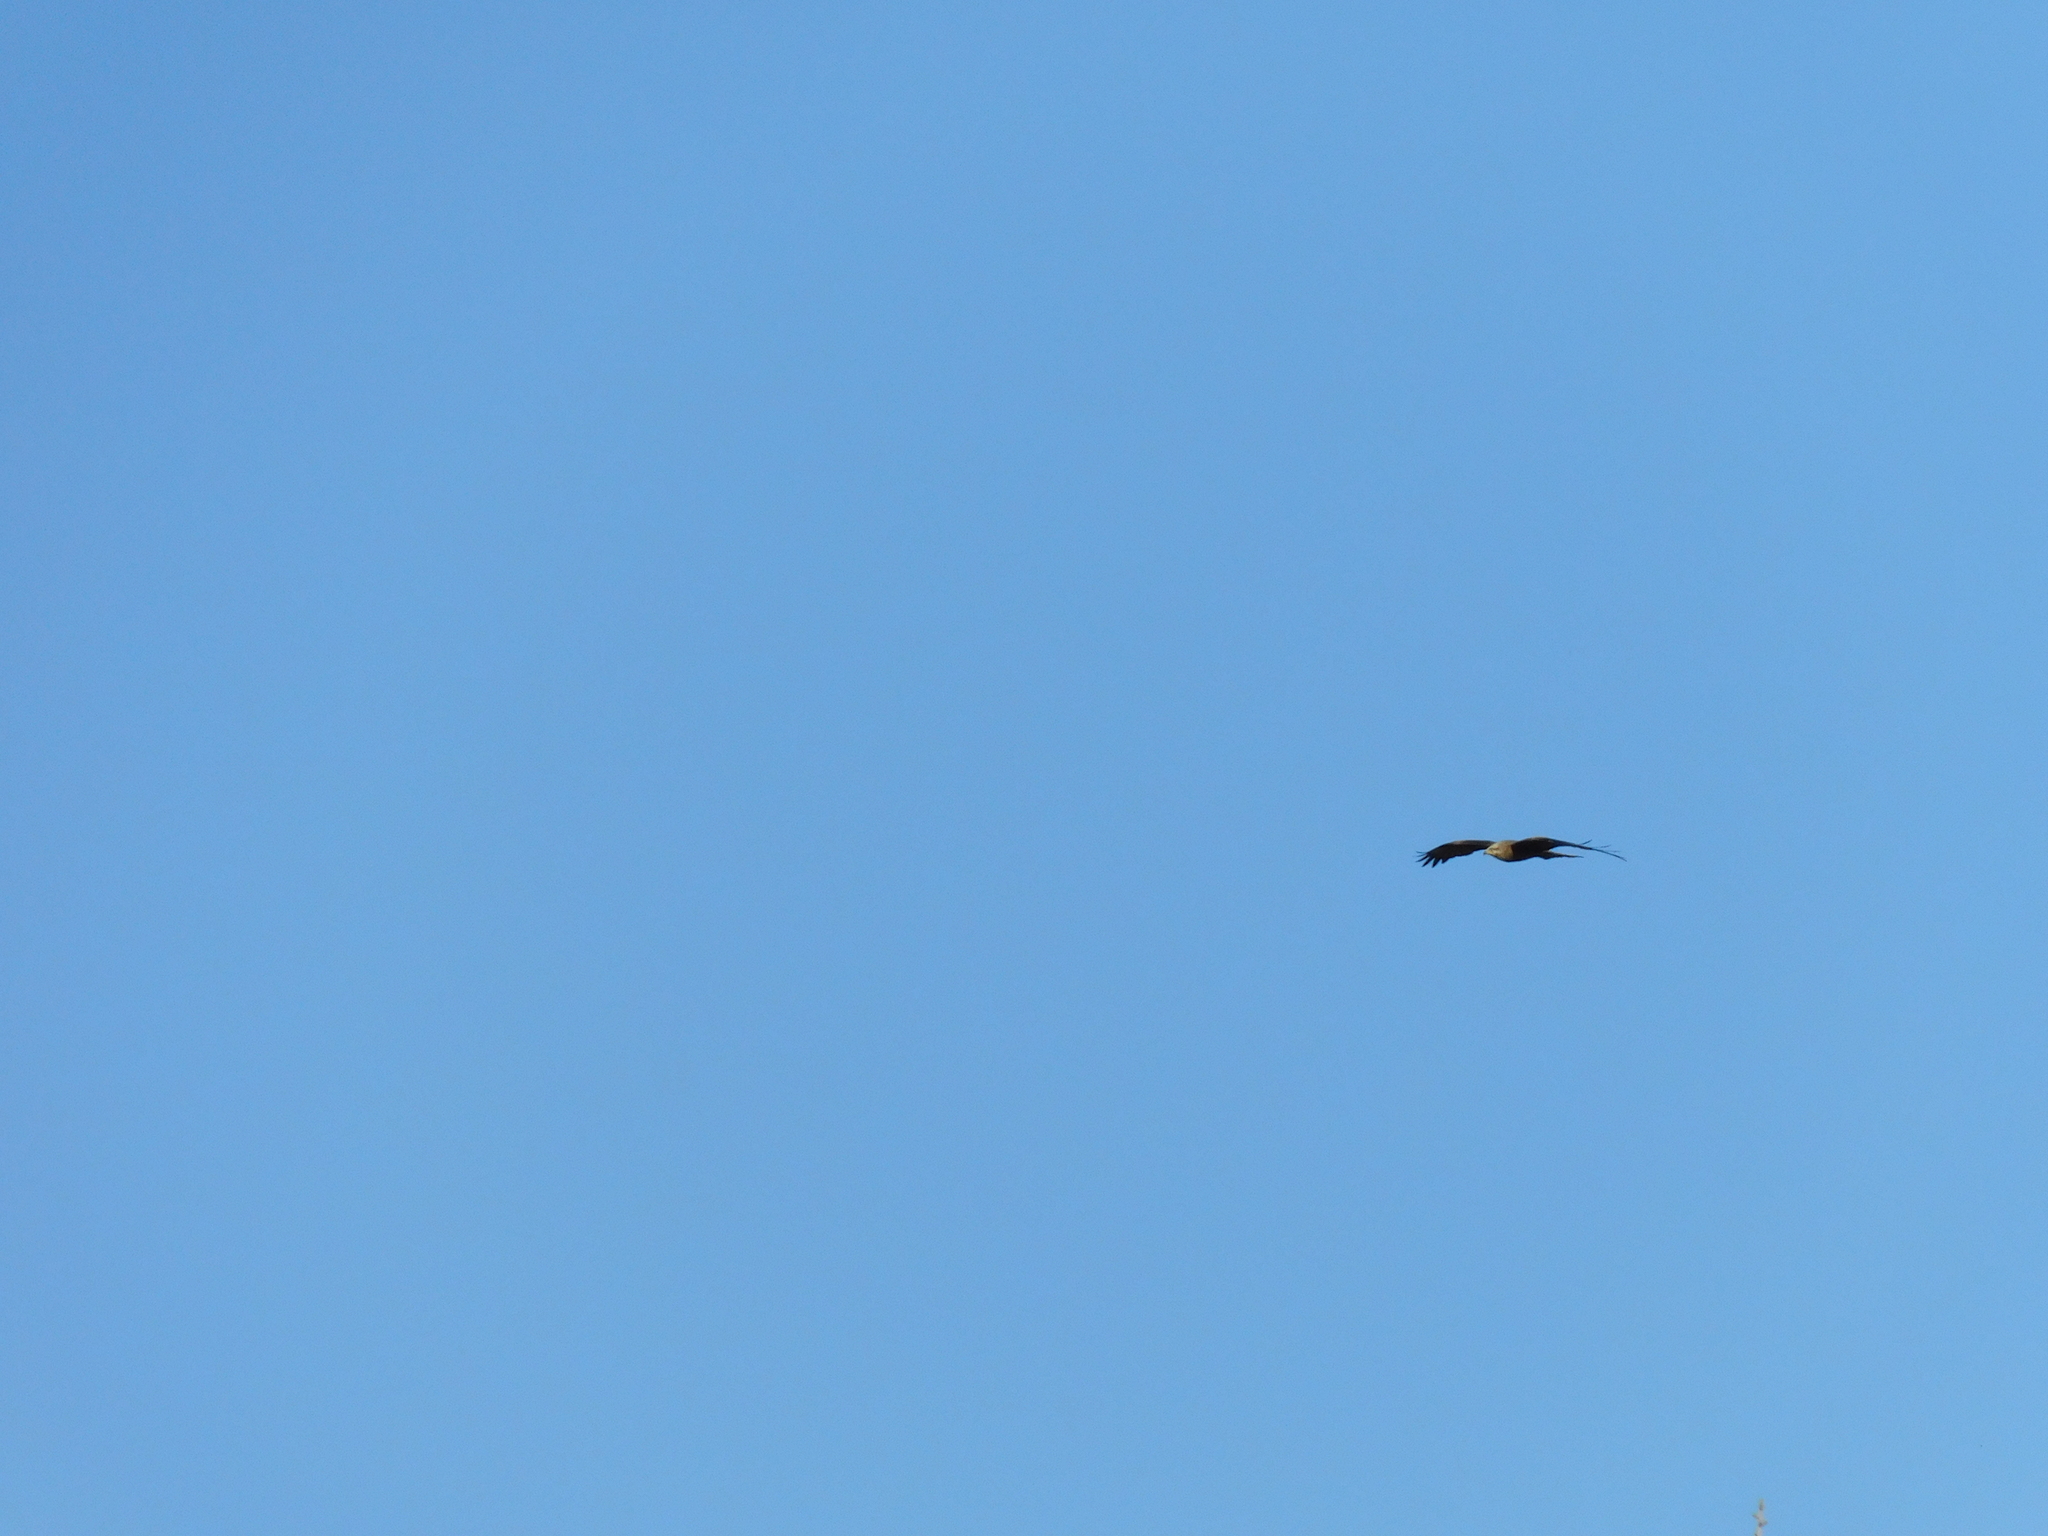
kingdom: Animalia
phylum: Chordata
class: Aves
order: Accipitriformes
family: Accipitridae
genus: Milvus
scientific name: Milvus migrans
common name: Black kite
